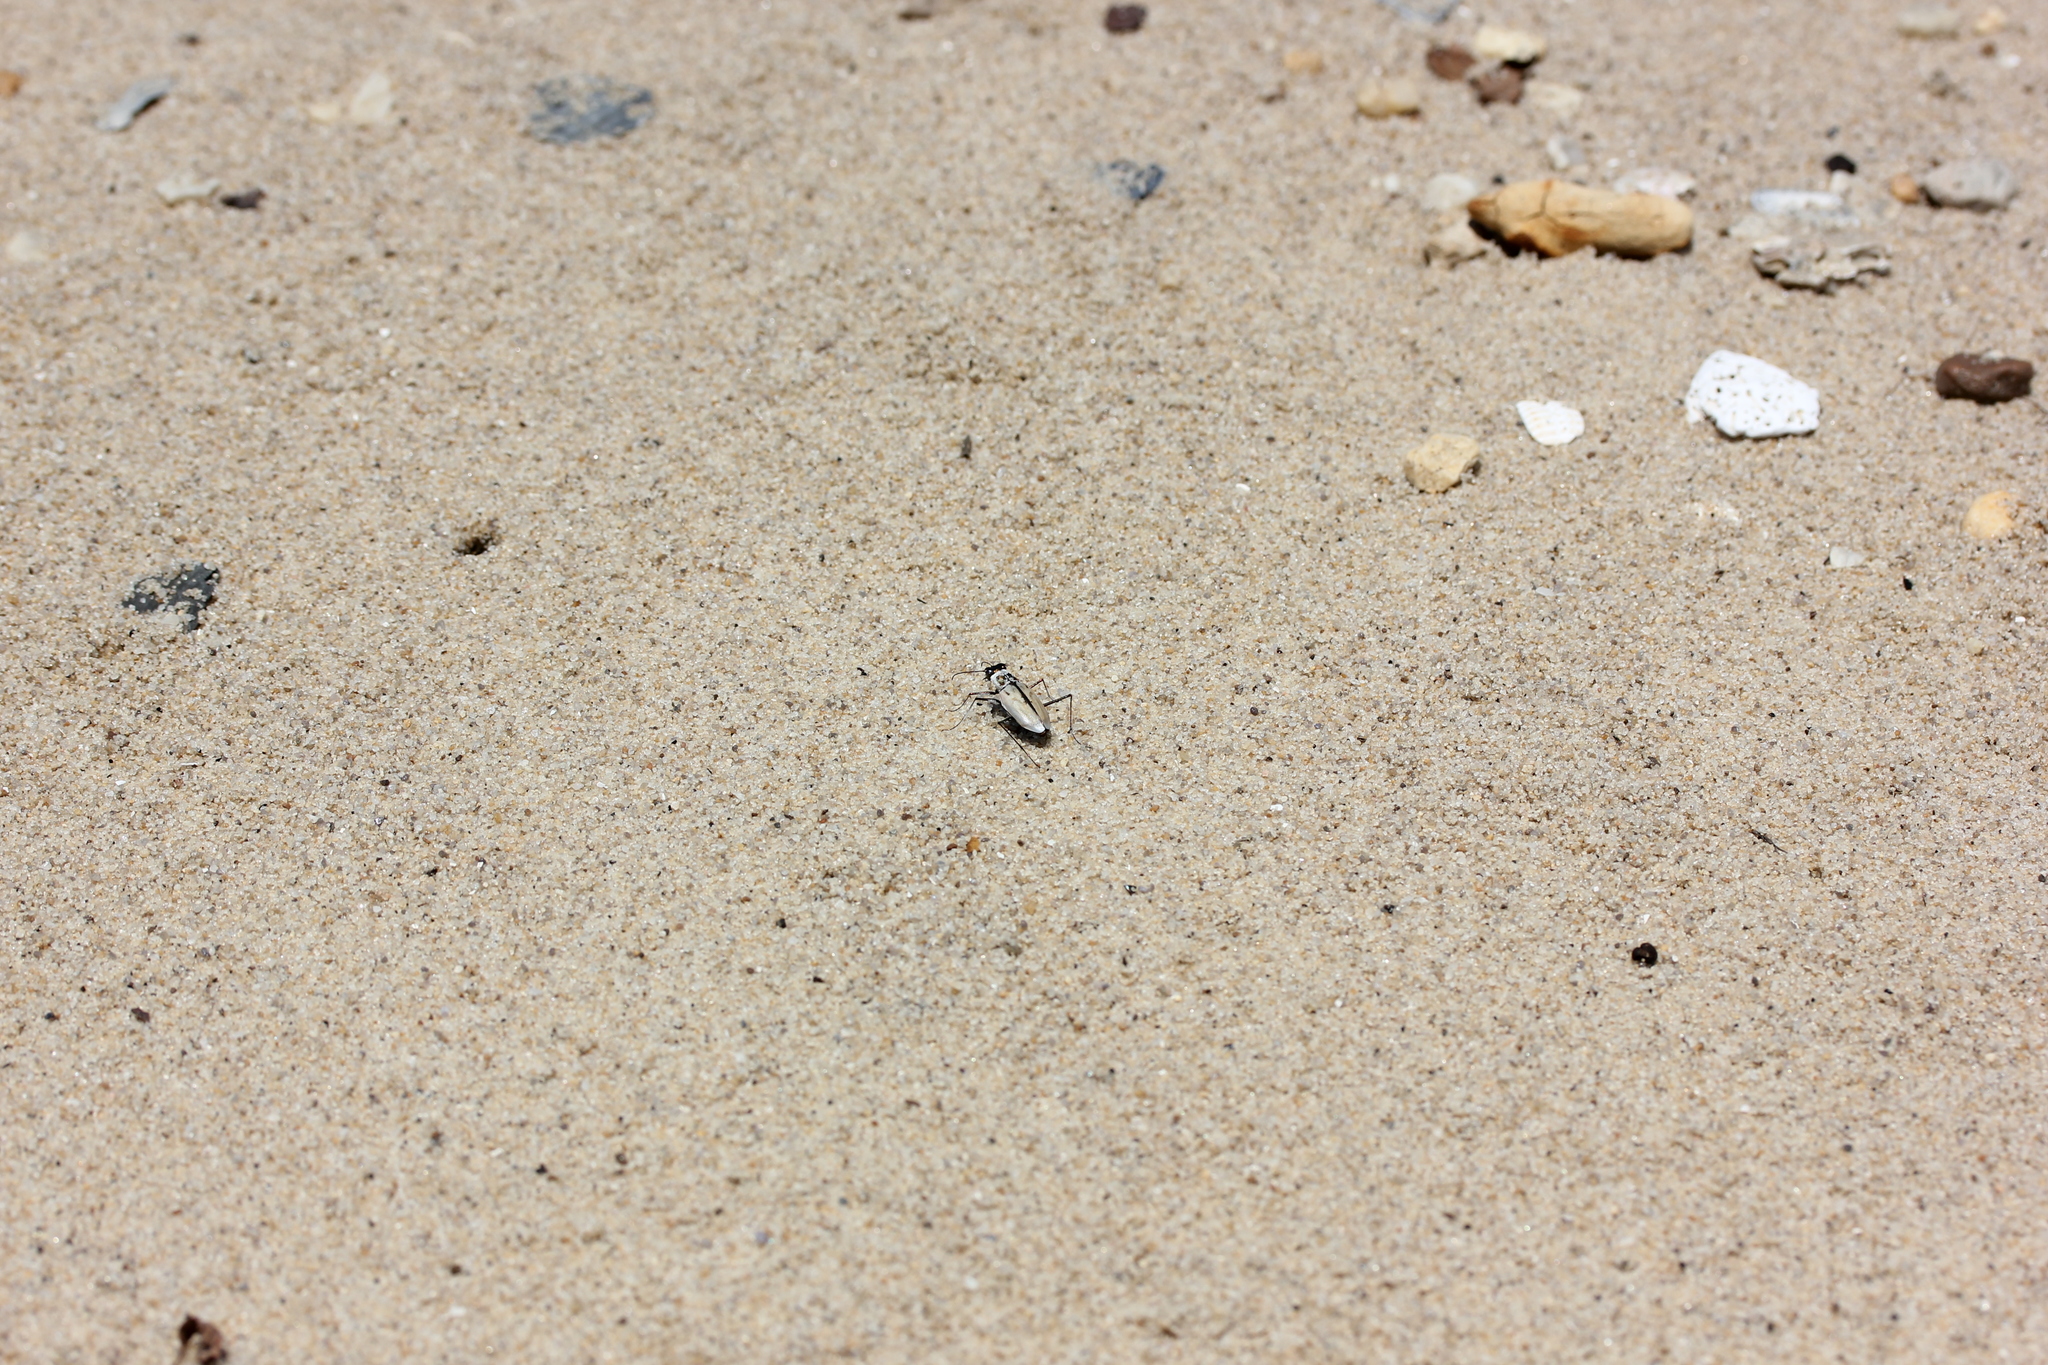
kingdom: Animalia
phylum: Arthropoda
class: Insecta
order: Coleoptera
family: Carabidae
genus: Habroscelimorpha
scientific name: Habroscelimorpha dorsalis
